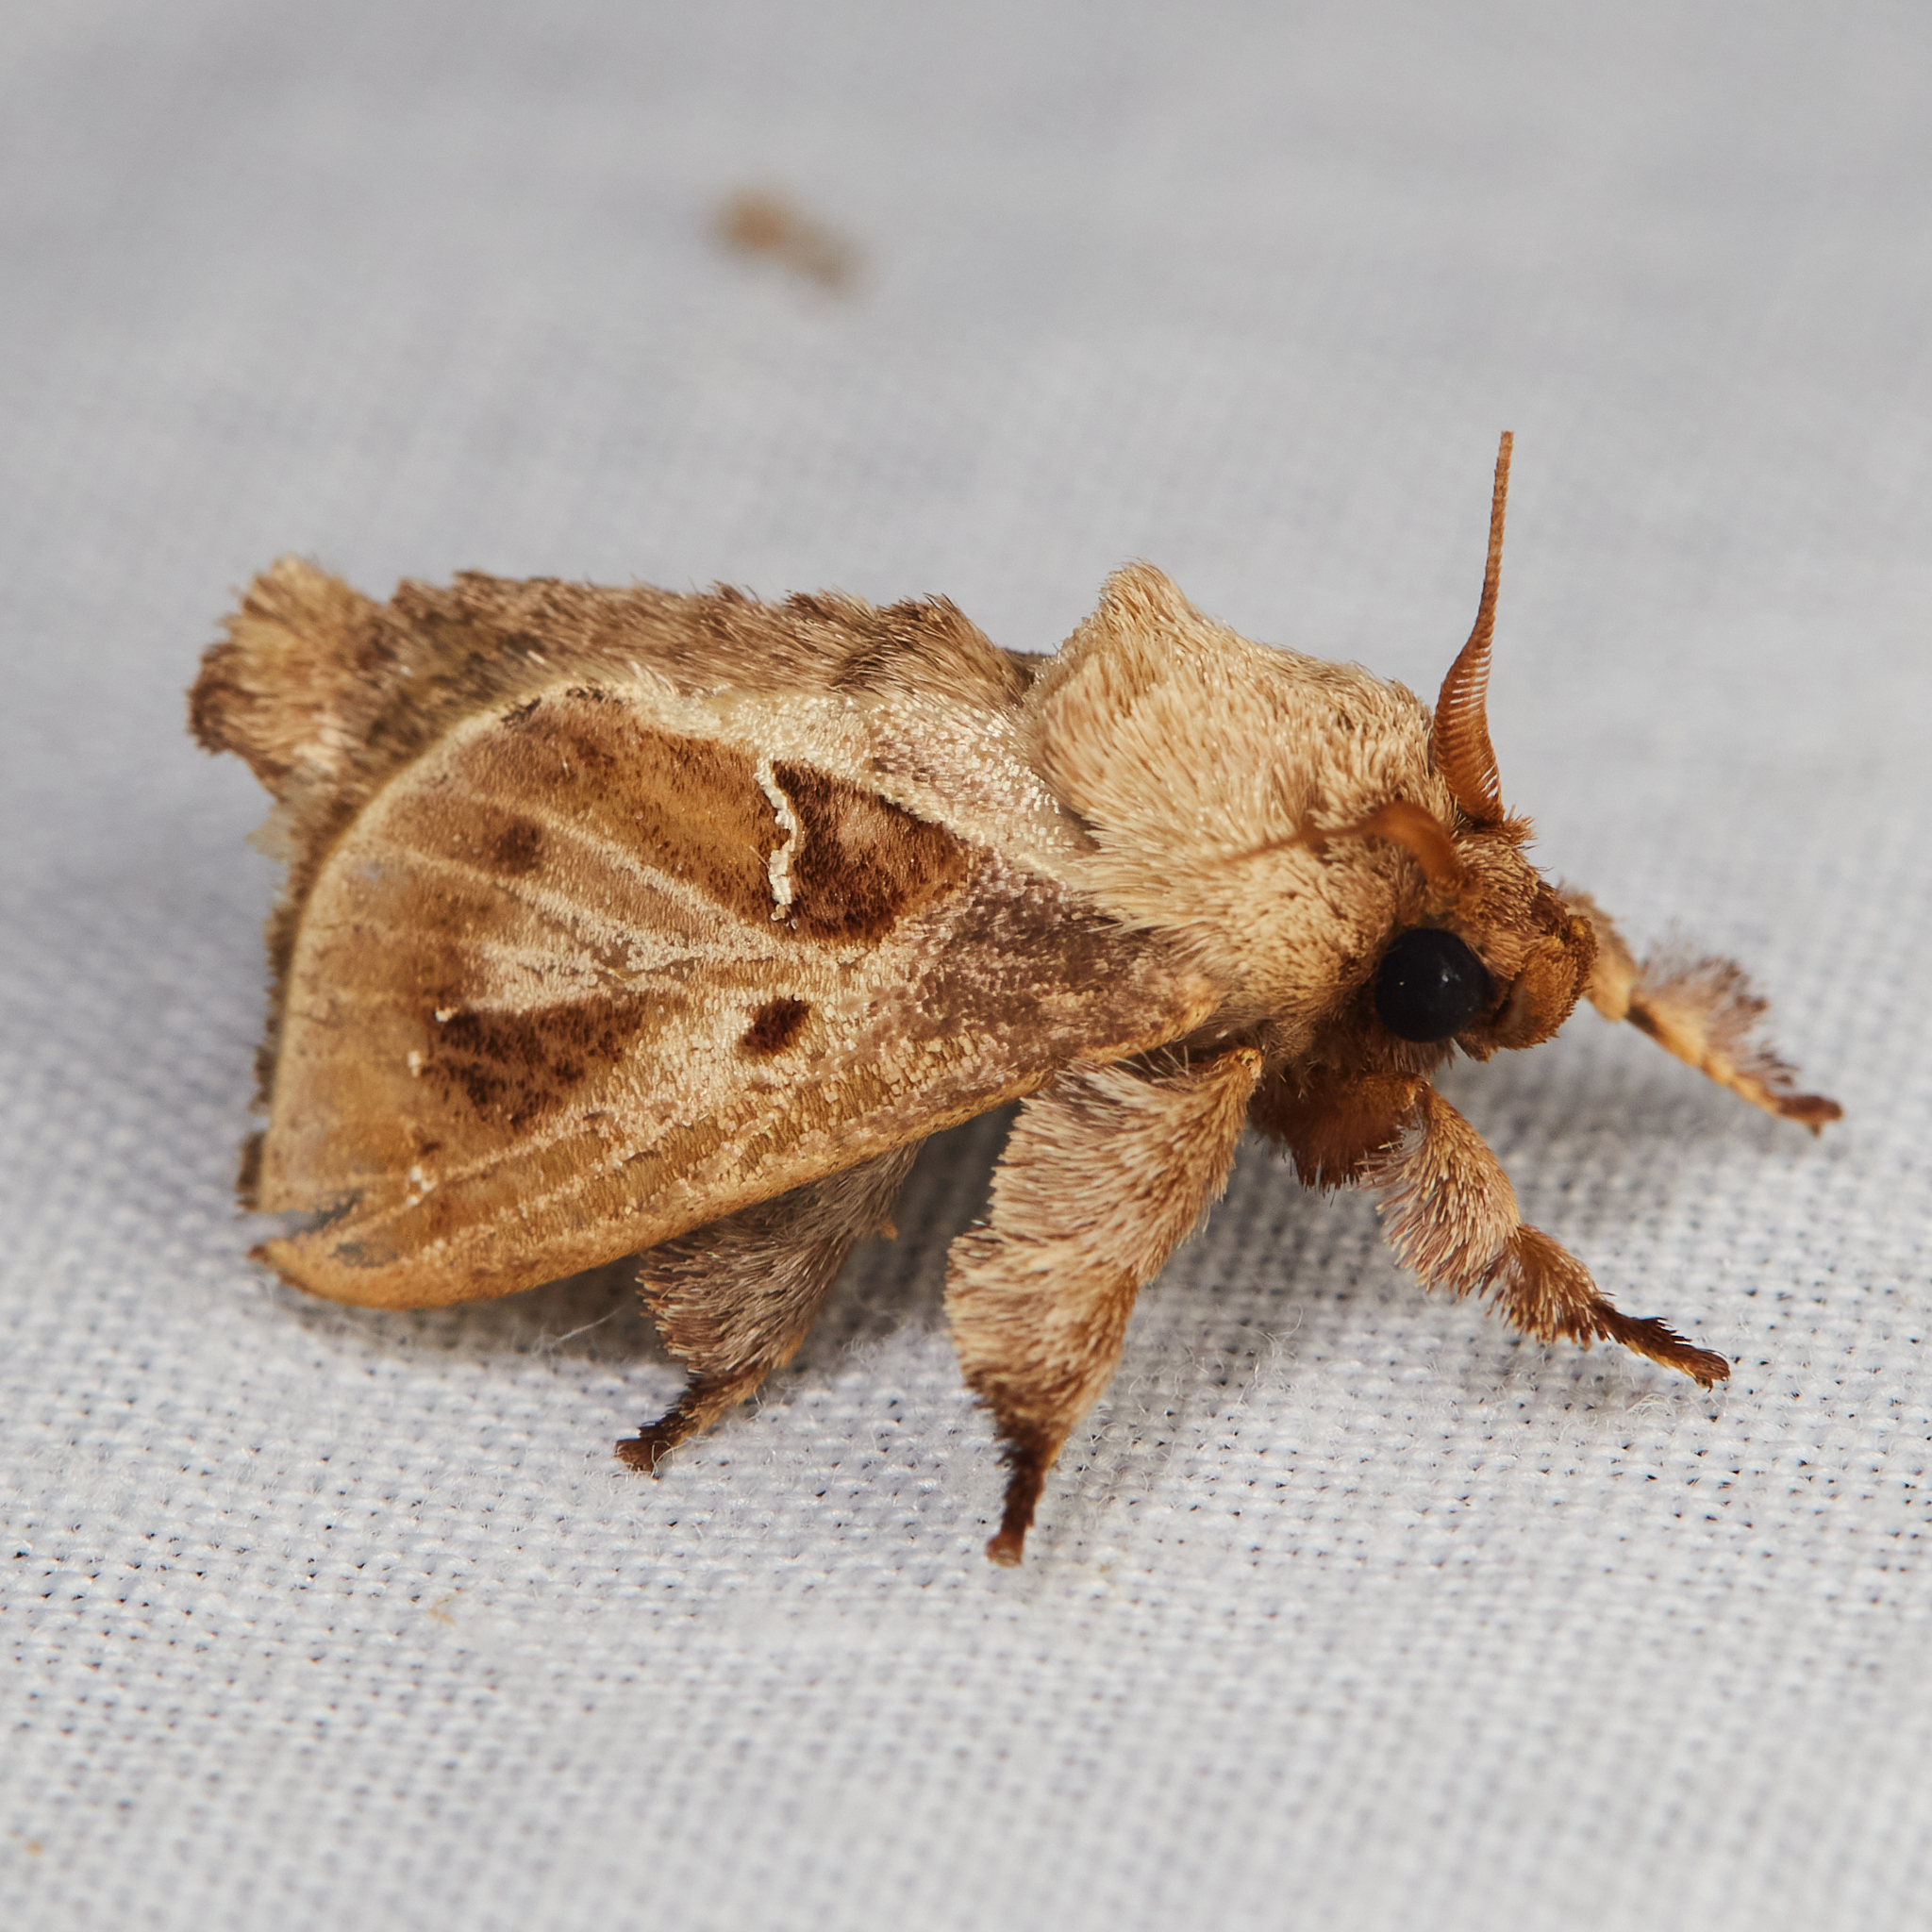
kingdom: Animalia
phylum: Arthropoda
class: Insecta
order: Lepidoptera
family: Limacodidae
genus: Euclea
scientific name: Euclea distrahens
